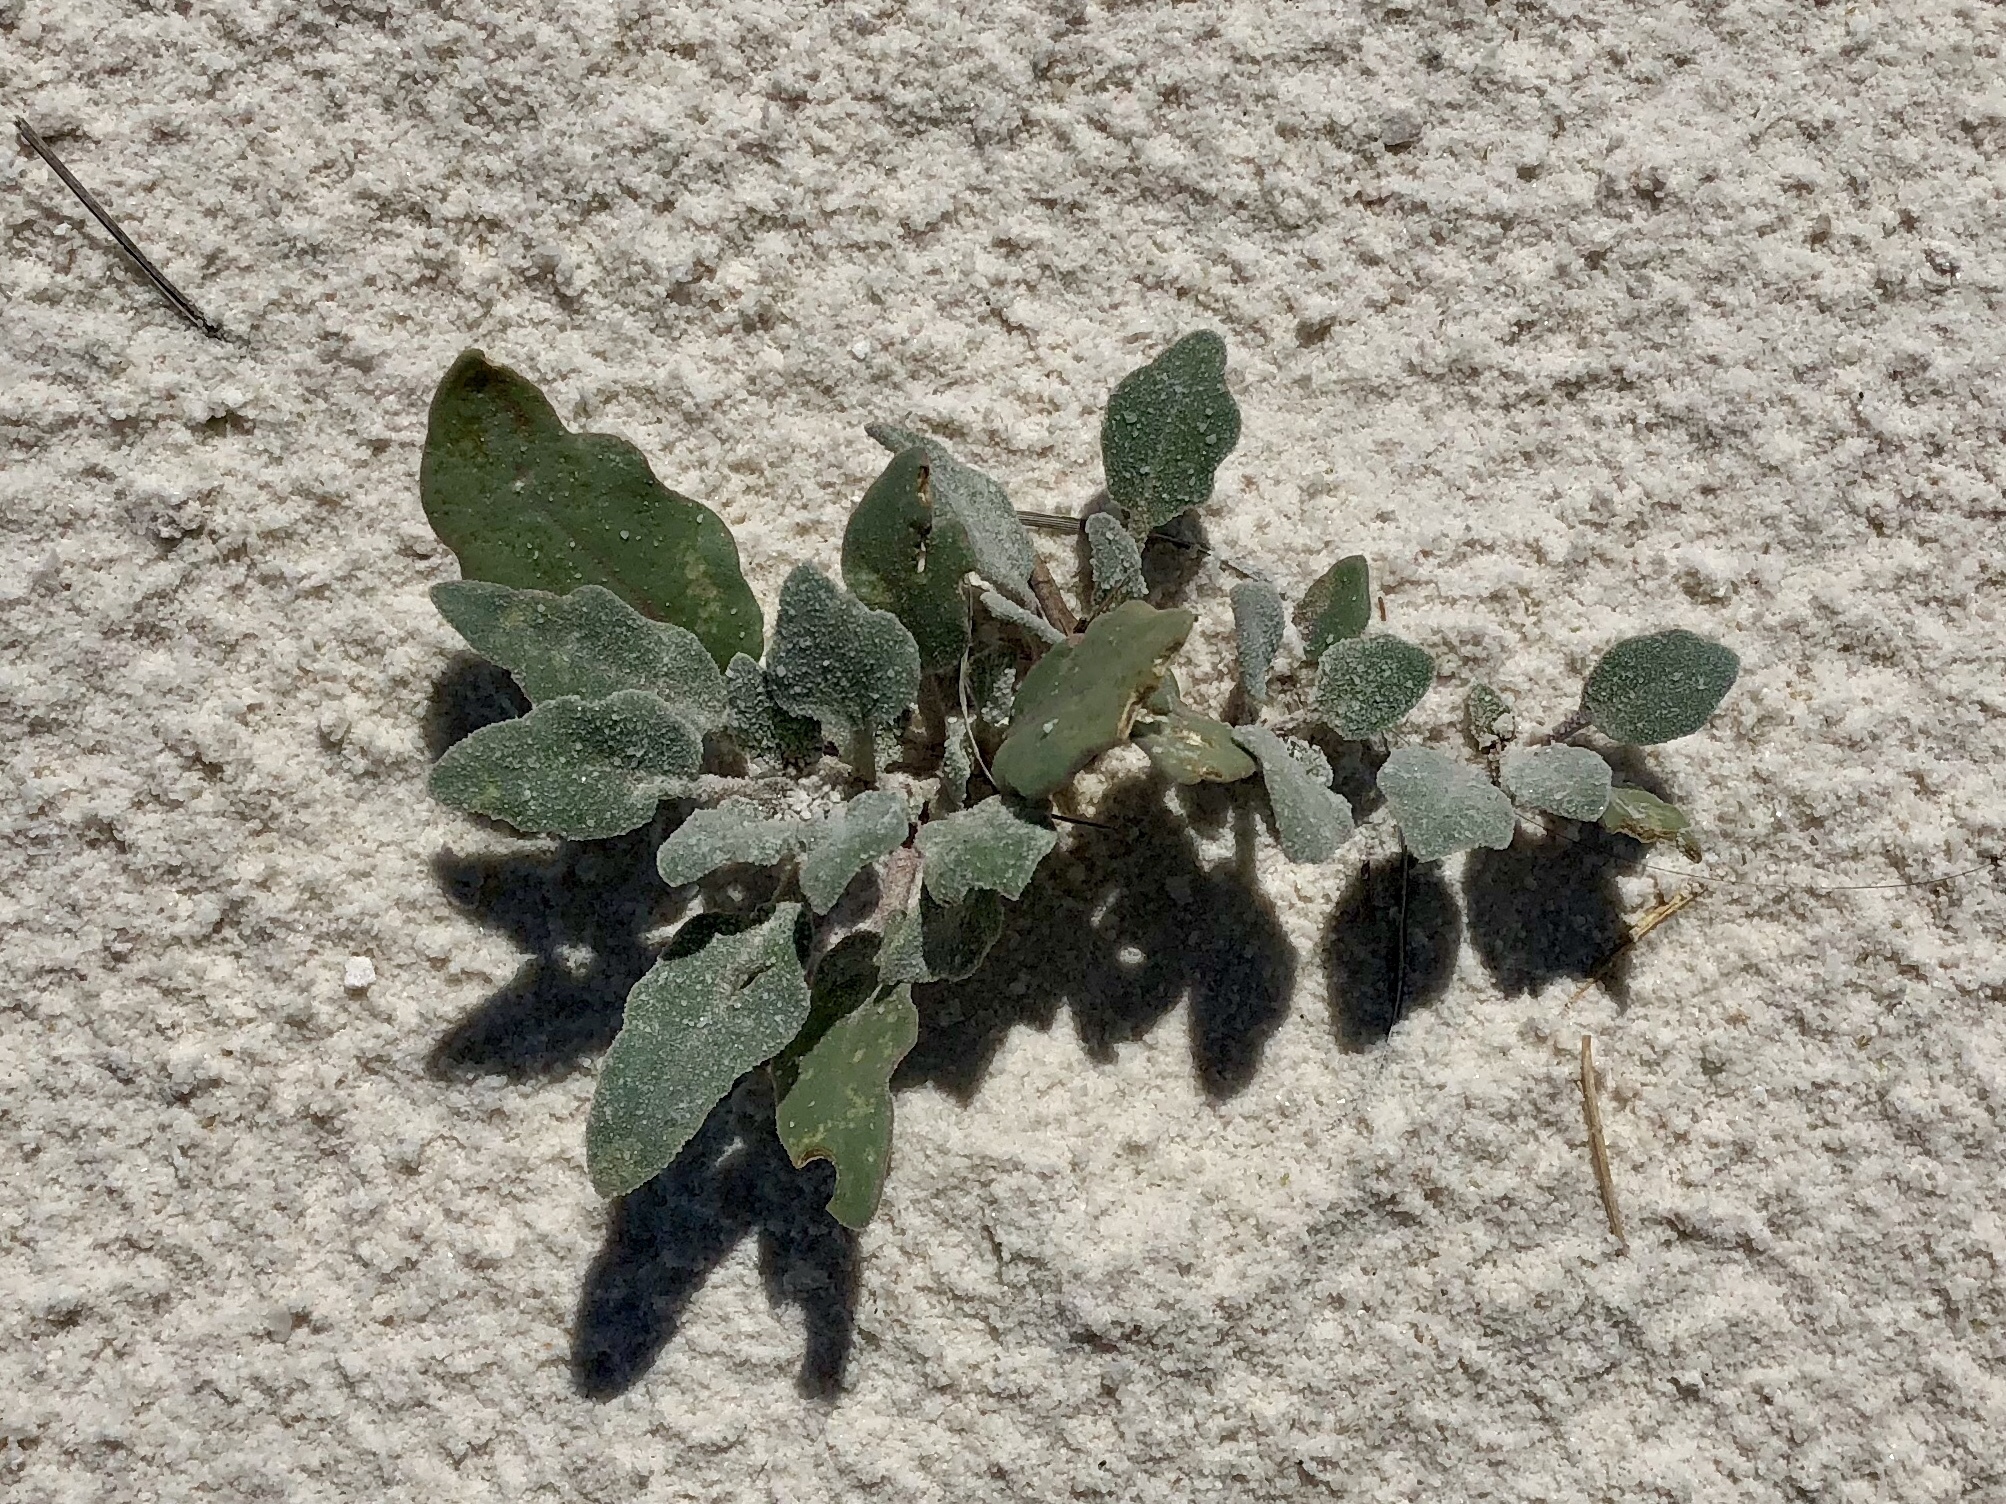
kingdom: Plantae
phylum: Tracheophyta
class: Magnoliopsida
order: Caryophyllales
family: Nyctaginaceae
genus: Abronia
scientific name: Abronia angustifolia
